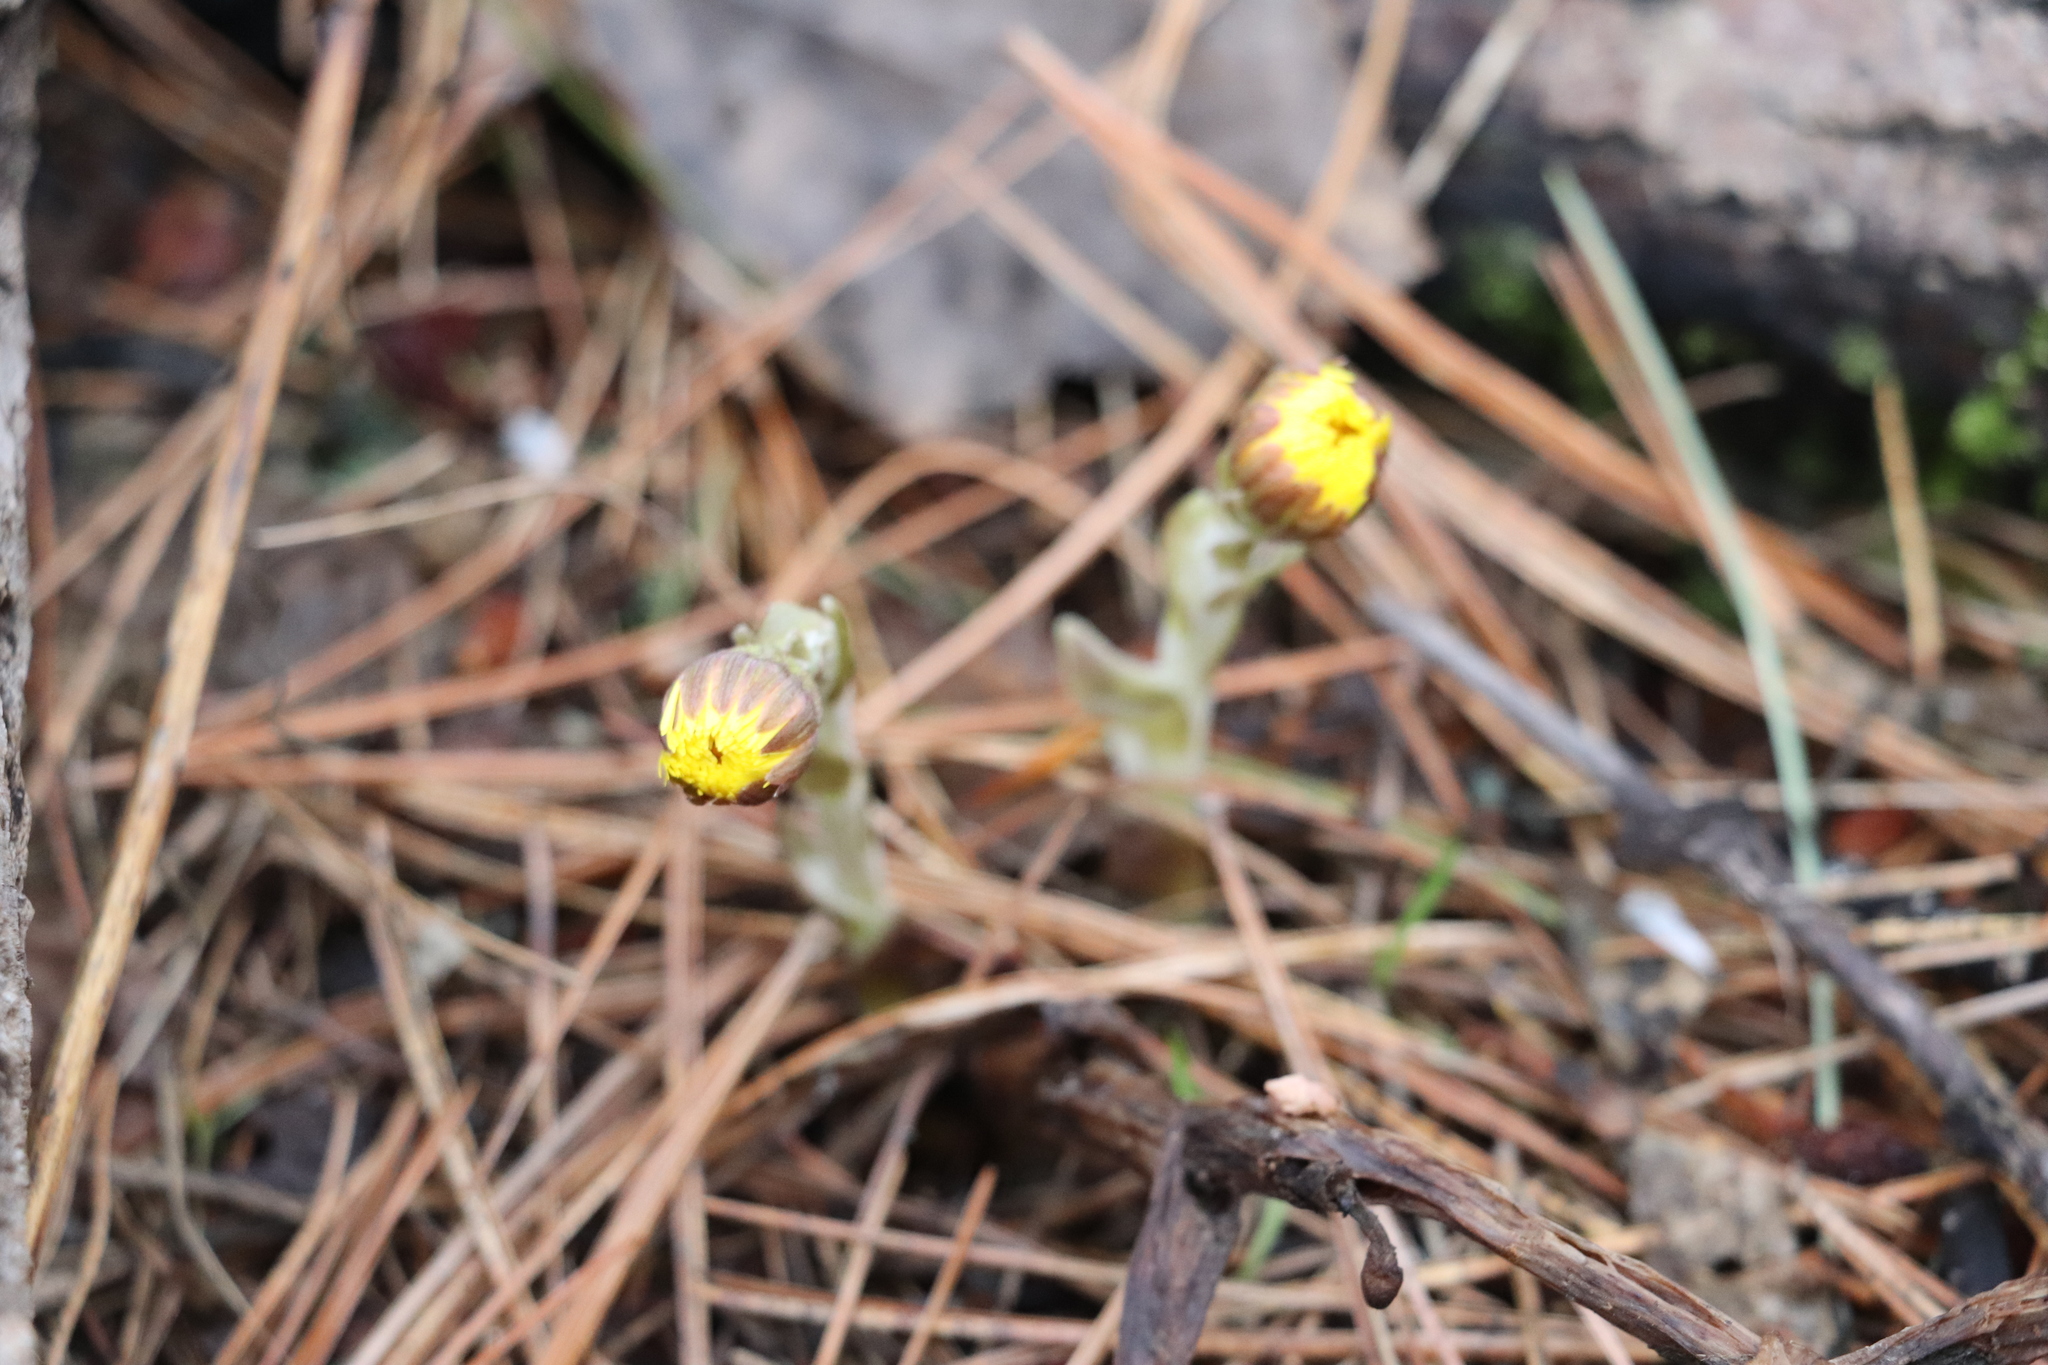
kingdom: Plantae
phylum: Tracheophyta
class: Magnoliopsida
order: Asterales
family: Asteraceae
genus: Tussilago
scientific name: Tussilago farfara
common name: Coltsfoot
